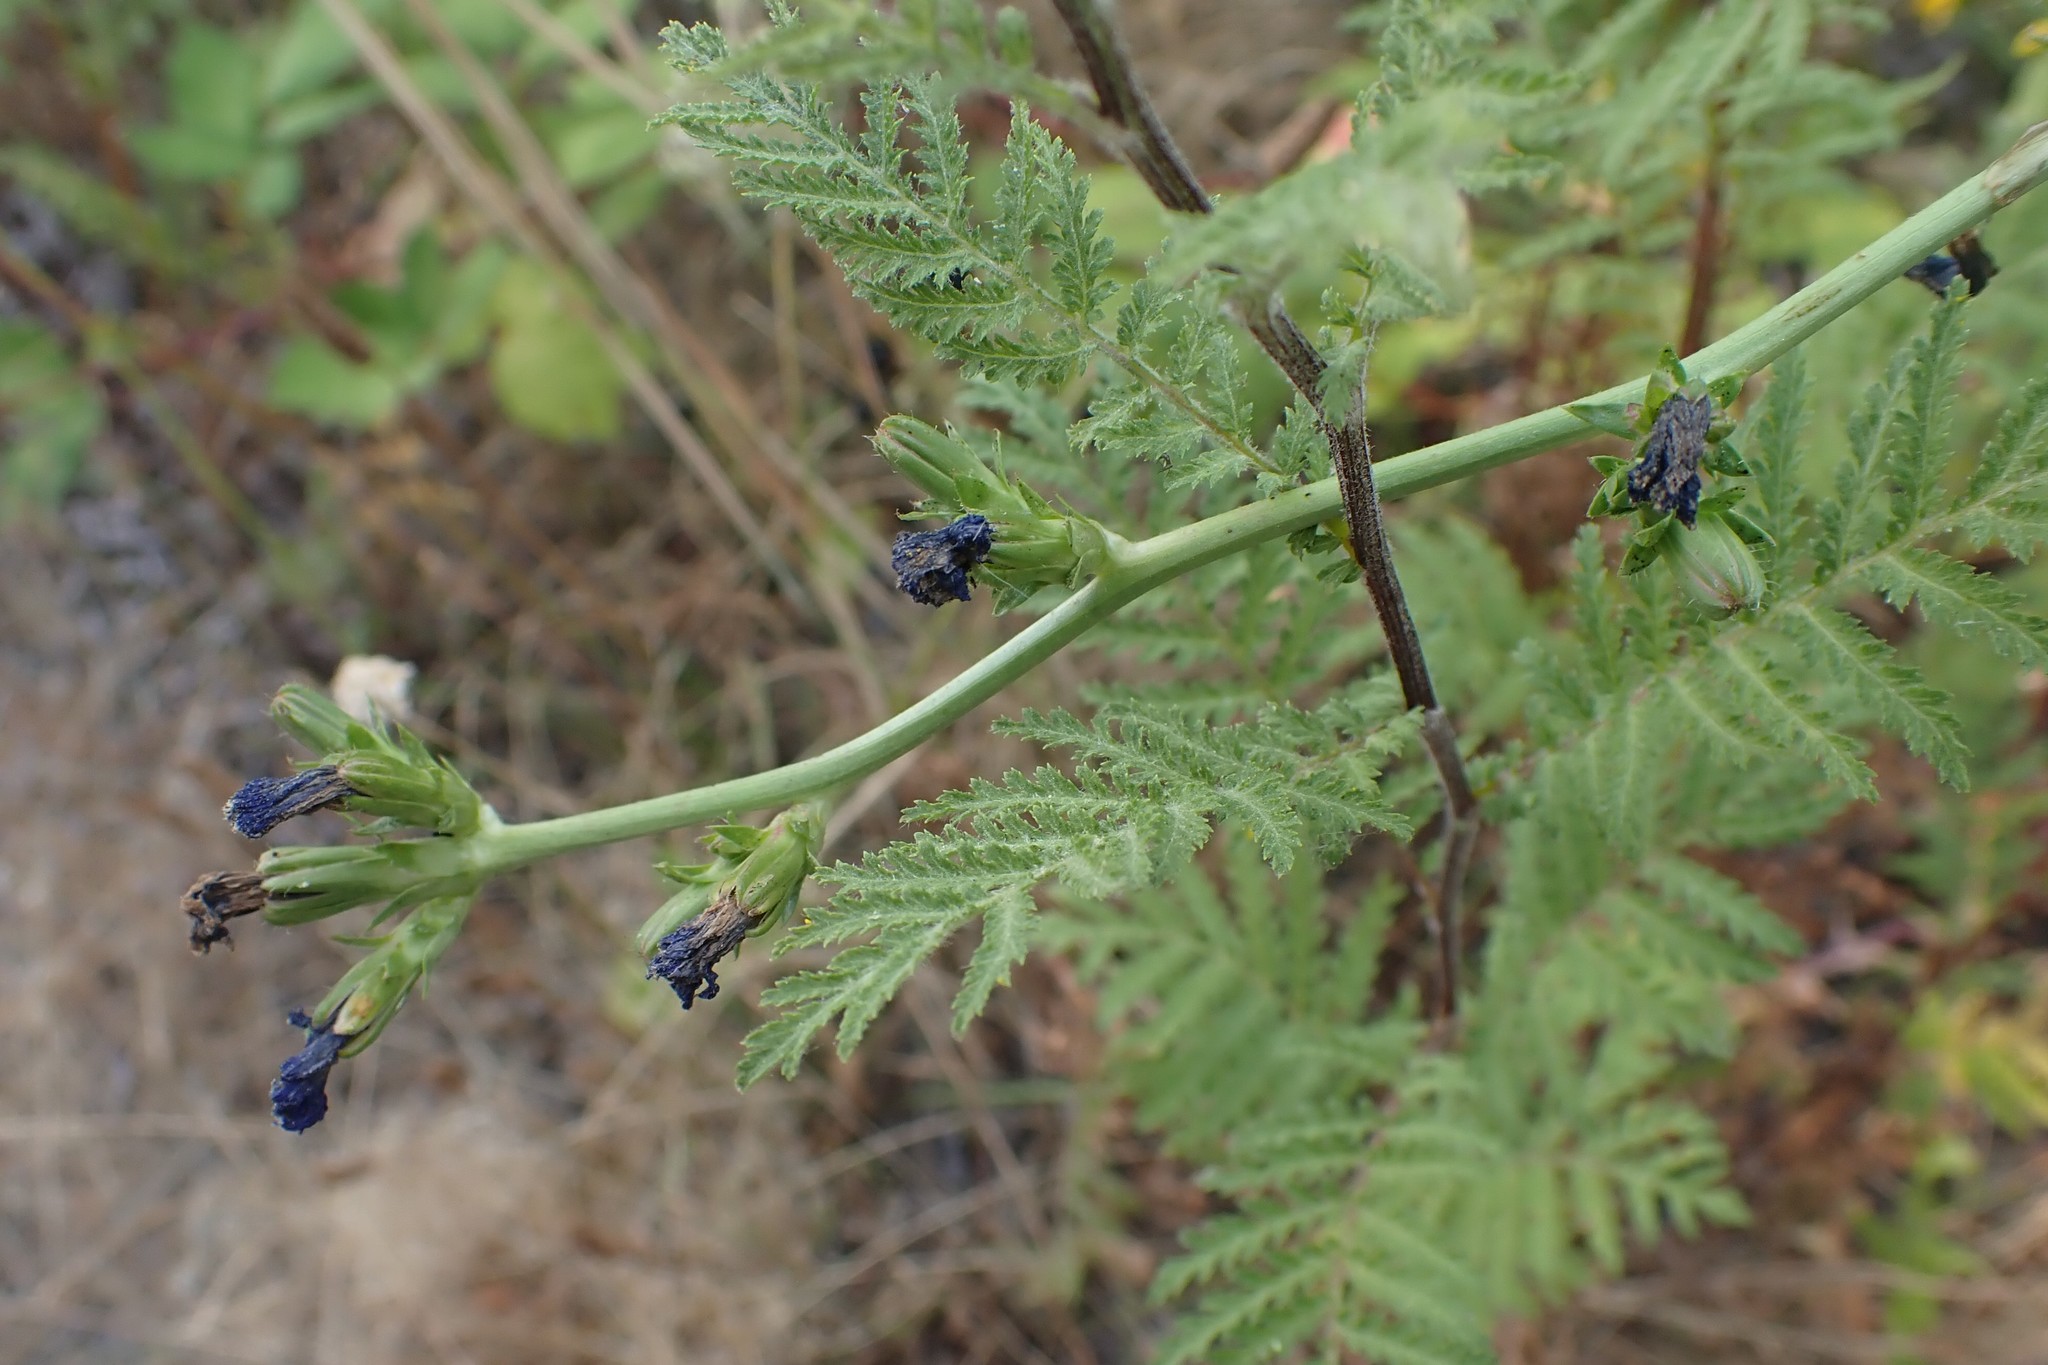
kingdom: Plantae
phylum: Tracheophyta
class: Magnoliopsida
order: Asterales
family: Asteraceae
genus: Cichorium
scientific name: Cichorium intybus
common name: Chicory
